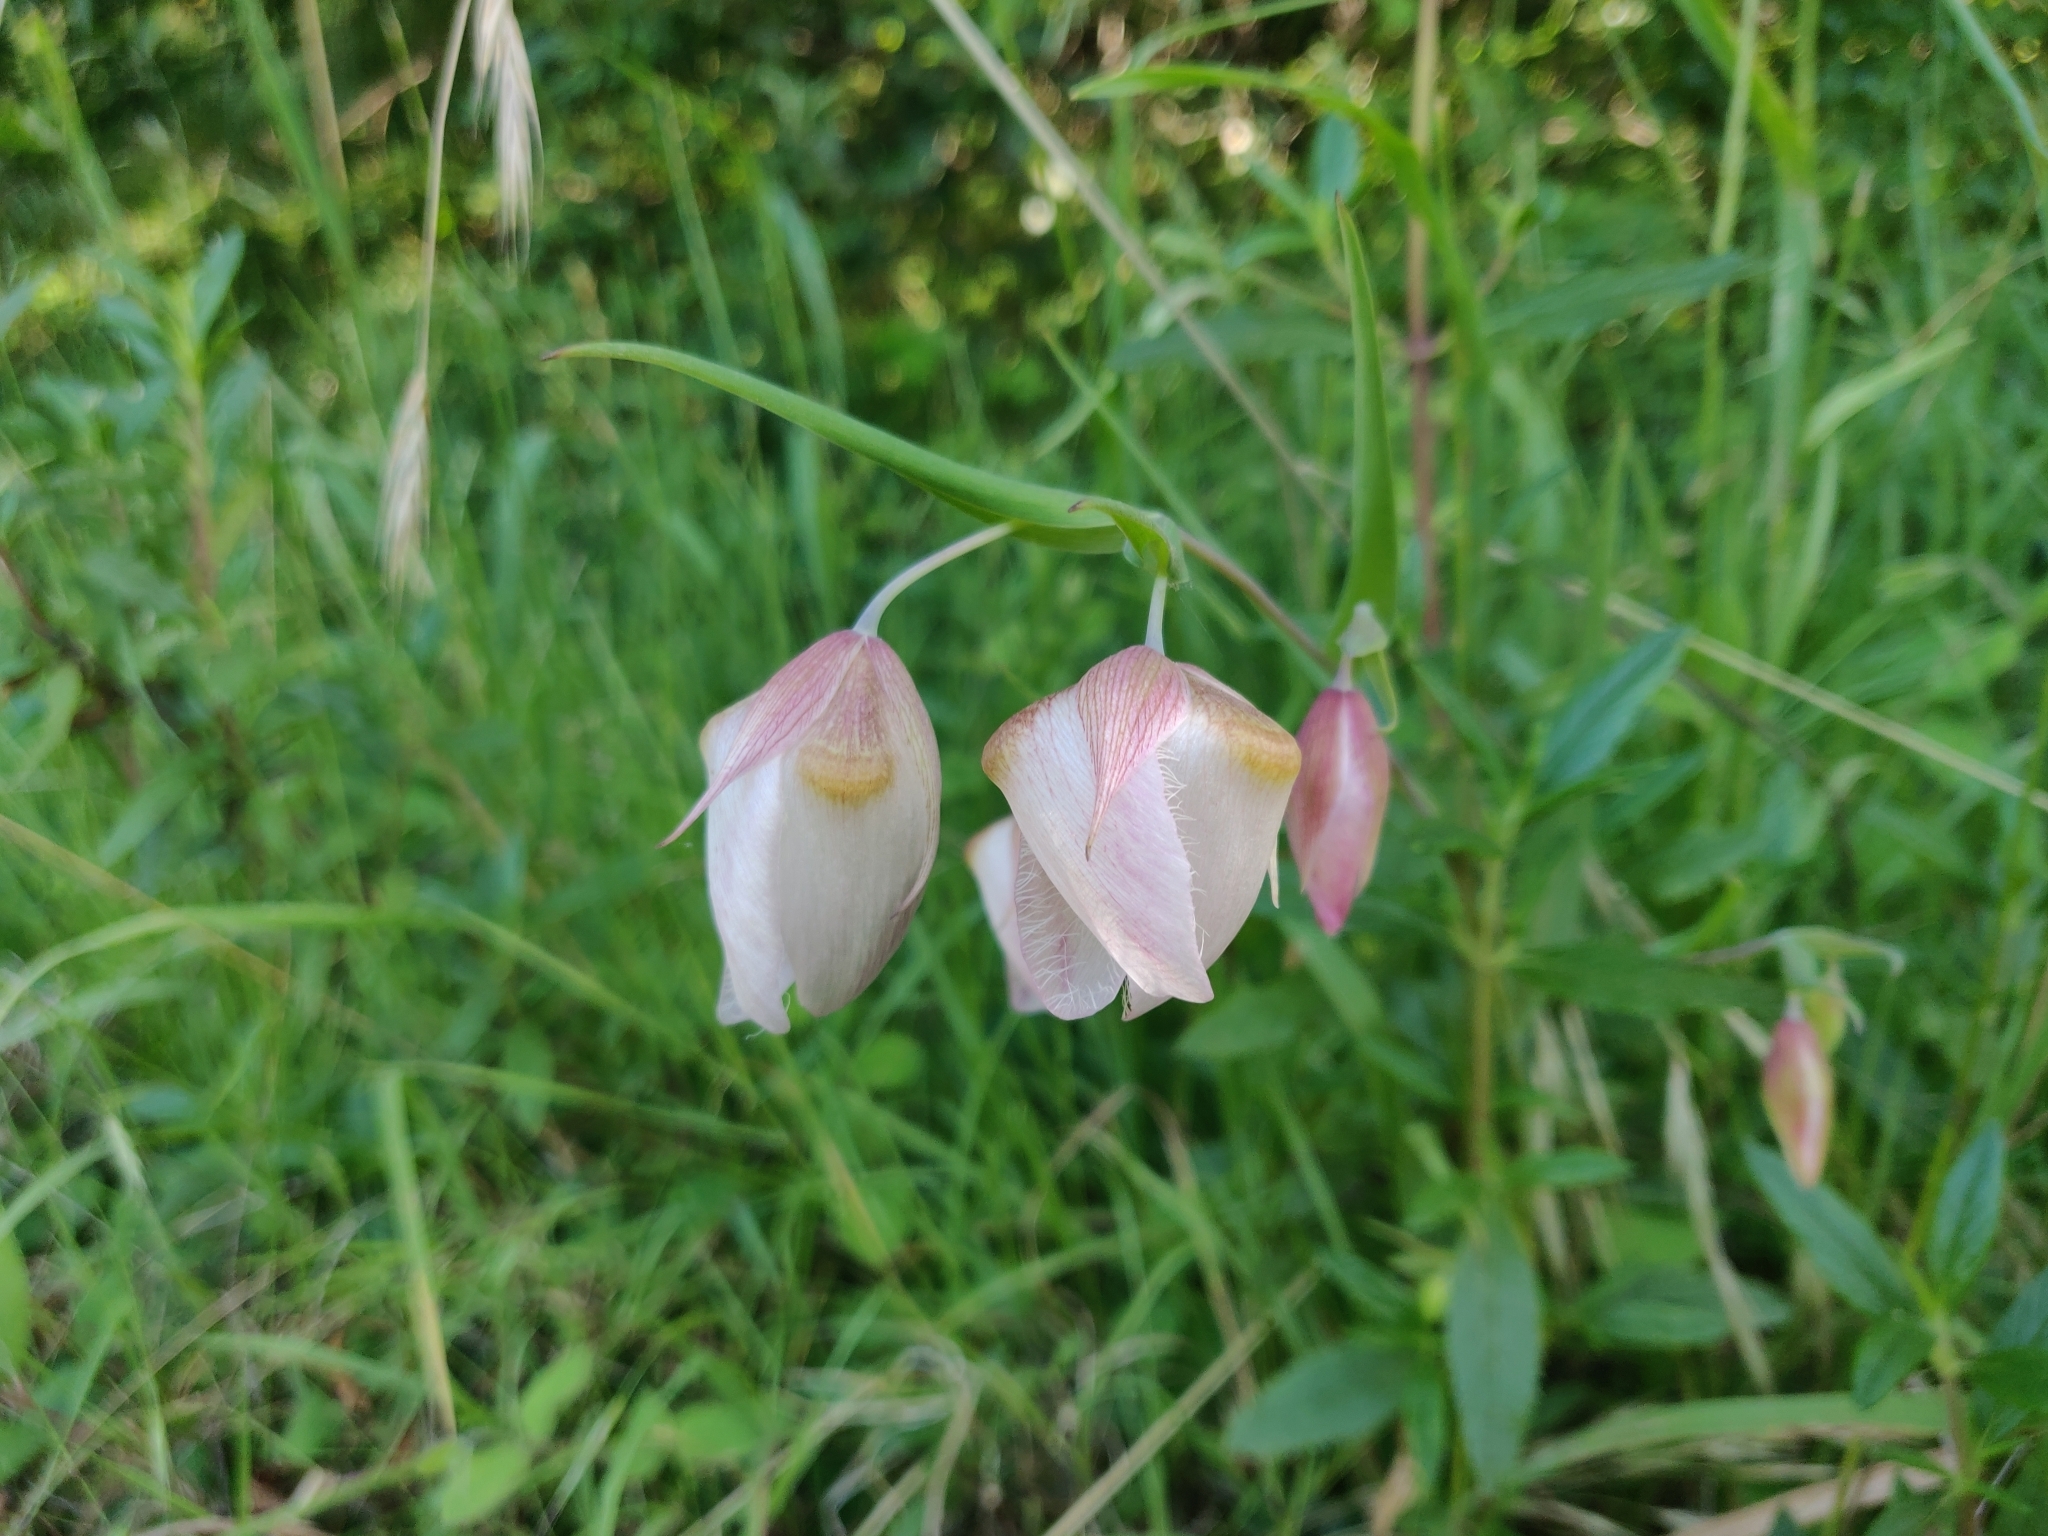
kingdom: Plantae
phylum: Tracheophyta
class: Liliopsida
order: Liliales
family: Liliaceae
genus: Calochortus
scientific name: Calochortus albus
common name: Fairy-lantern
